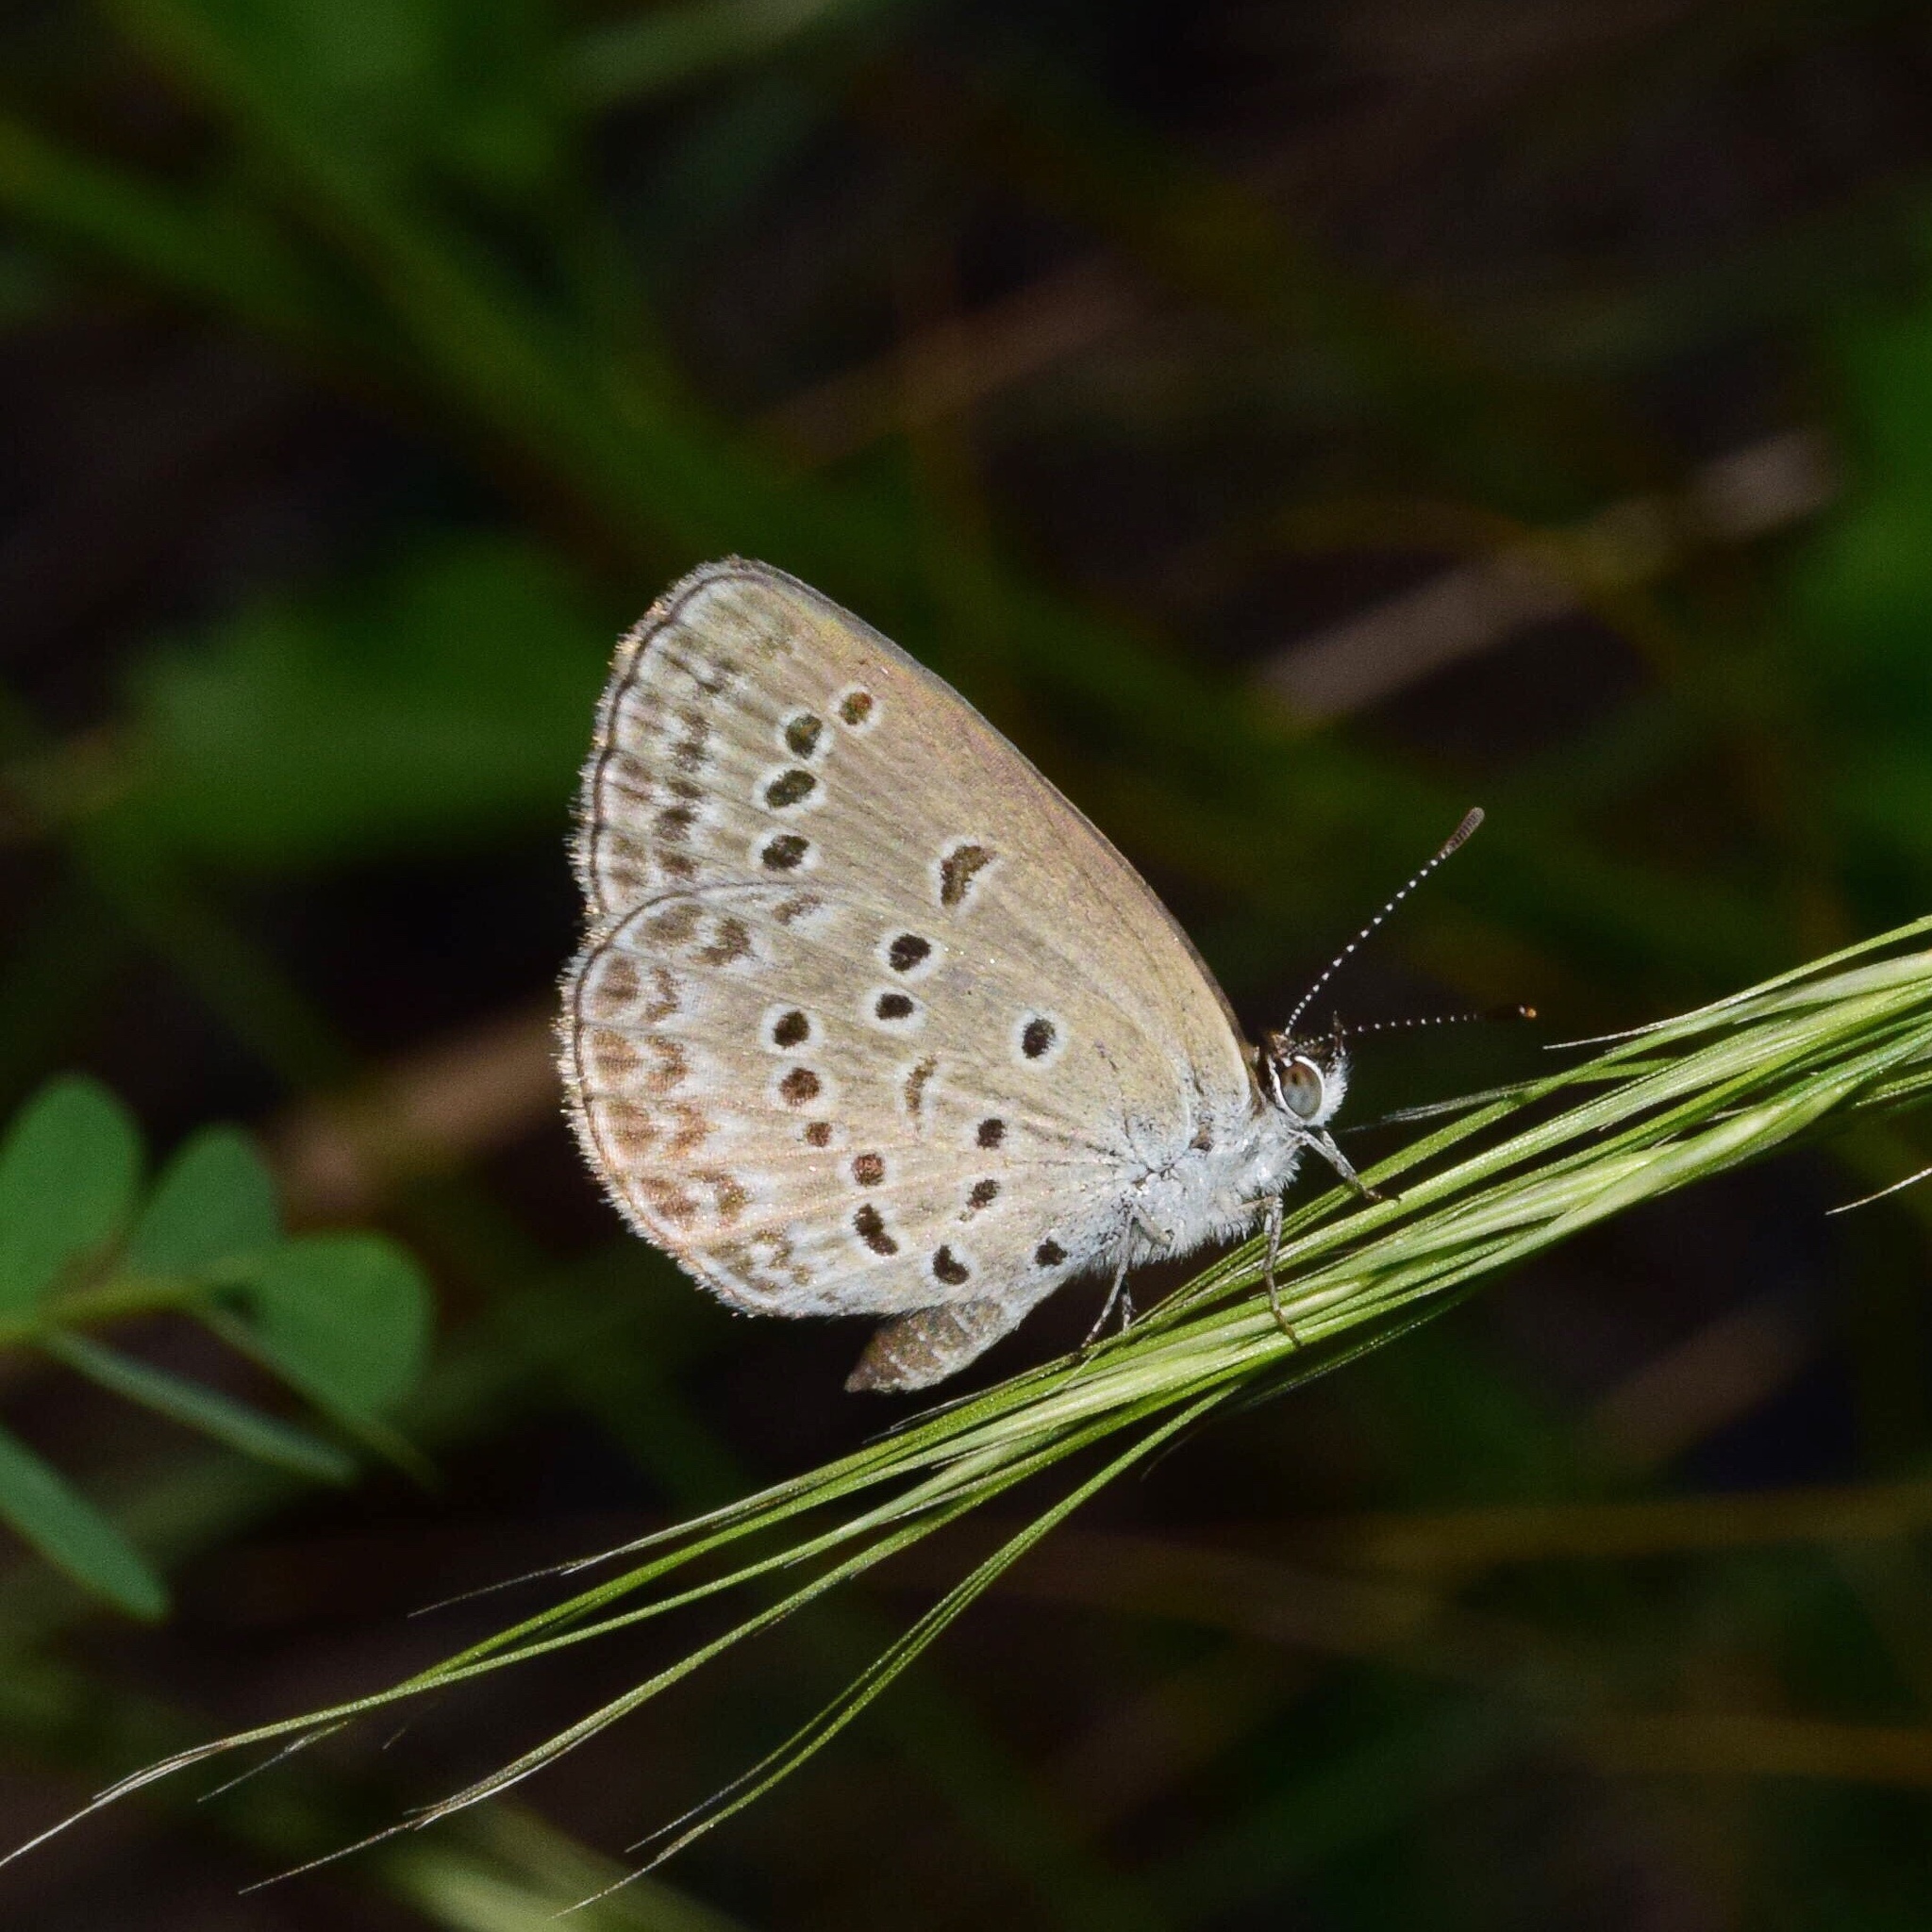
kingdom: Animalia
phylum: Arthropoda
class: Insecta
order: Lepidoptera
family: Lycaenidae
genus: Zizina
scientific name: Zizina antanossa
